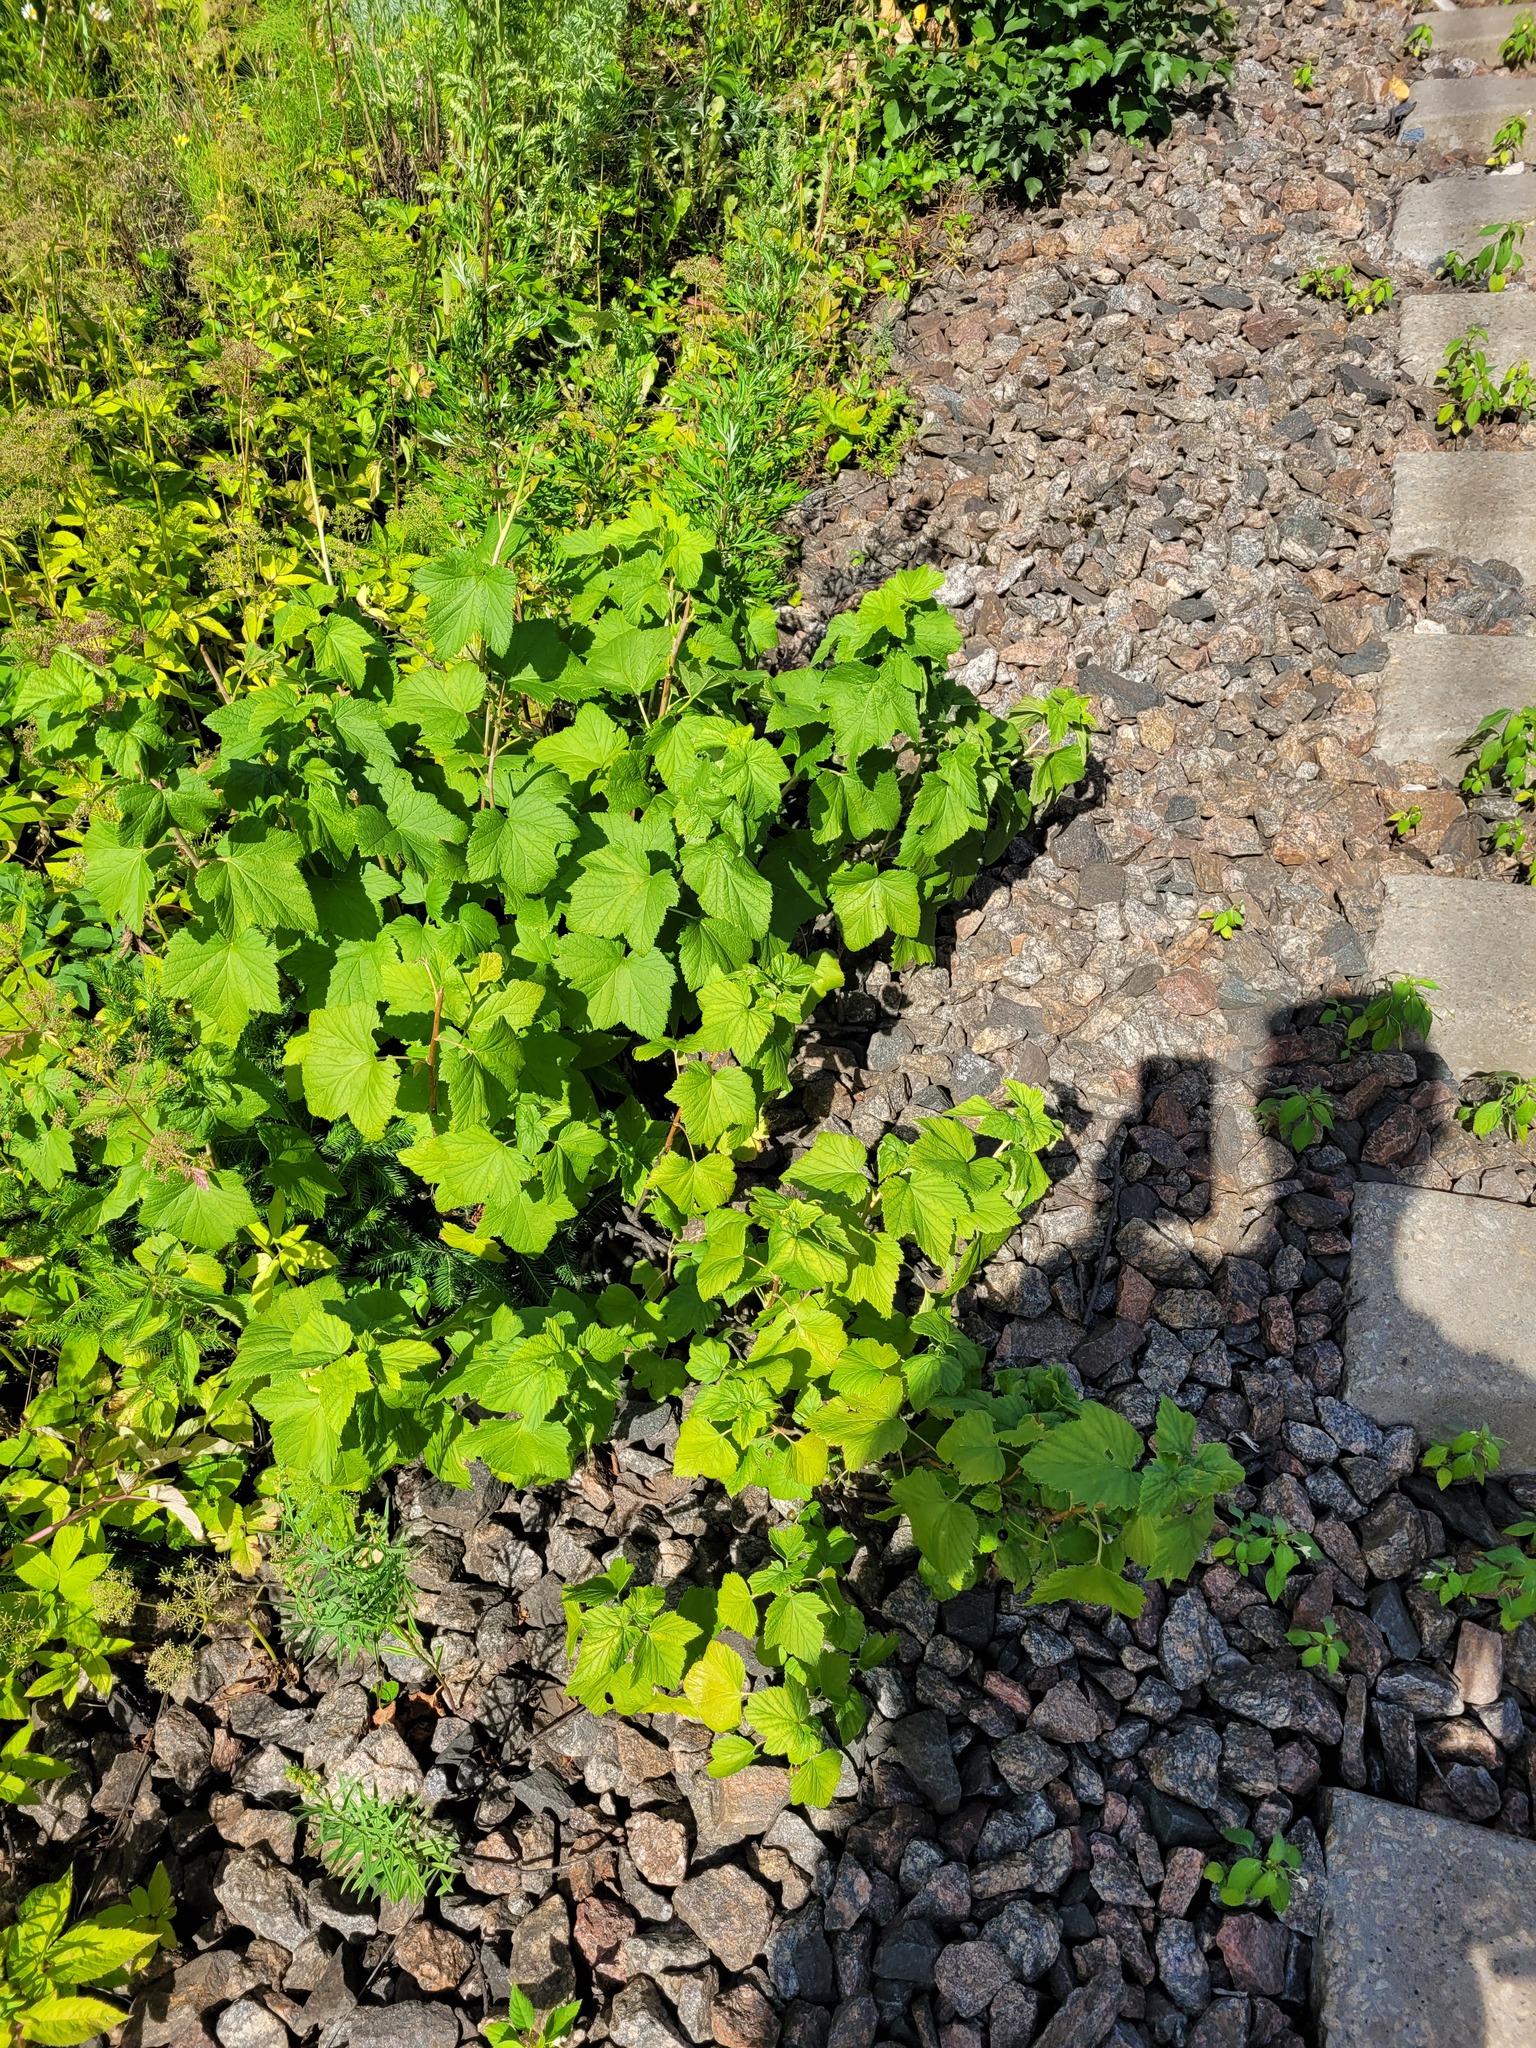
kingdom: Plantae
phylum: Tracheophyta
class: Magnoliopsida
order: Saxifragales
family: Grossulariaceae
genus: Ribes
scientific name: Ribes nigrum
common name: Black currant
